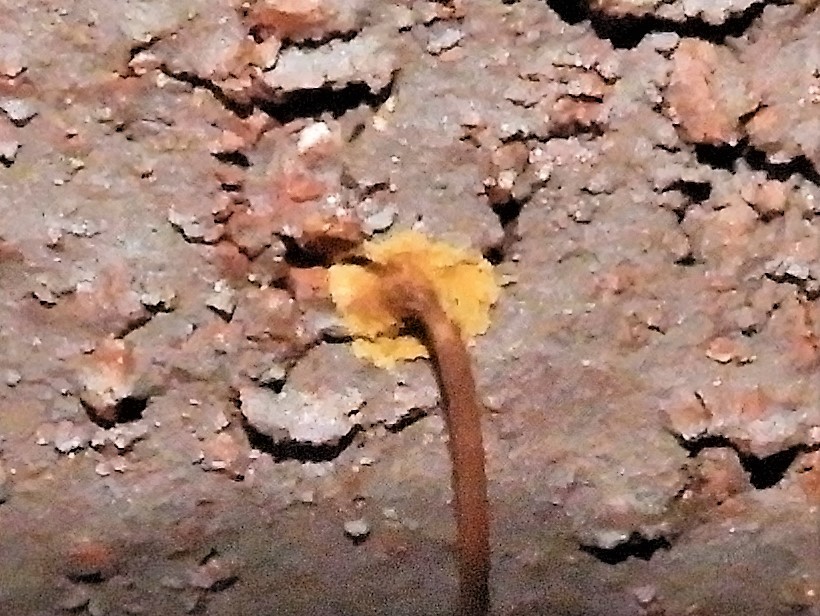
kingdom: Plantae
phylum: Tracheophyta
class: Magnoliopsida
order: Vitales
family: Vitaceae
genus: Parthenocissus
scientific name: Parthenocissus quinquefolia
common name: Virginia-creeper
